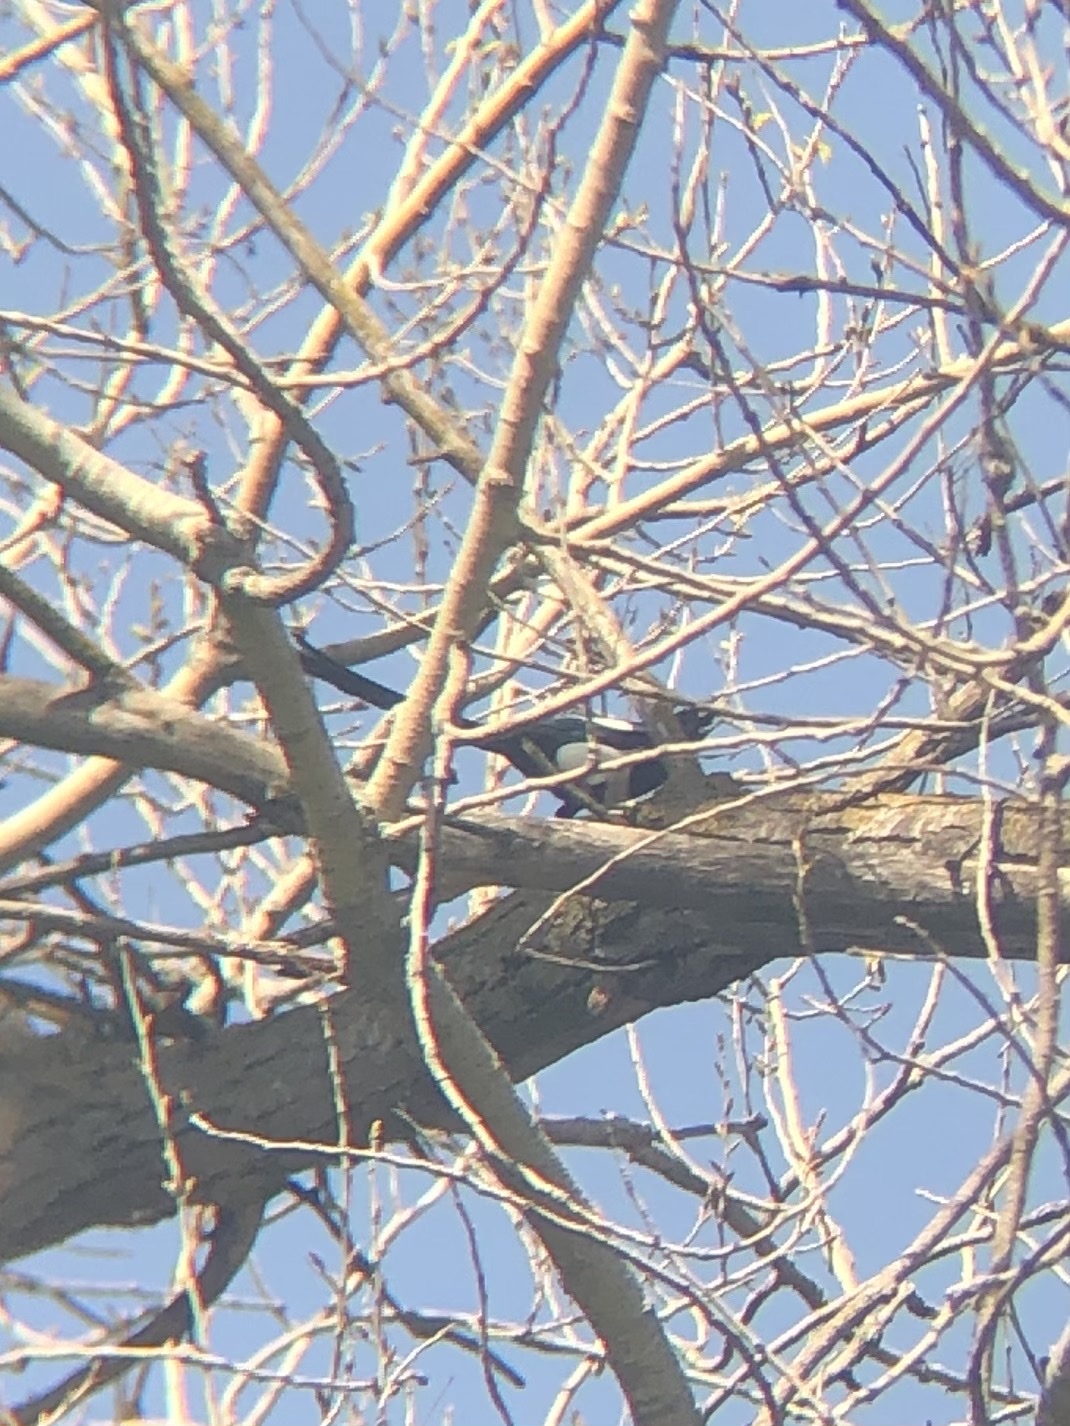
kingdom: Animalia
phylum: Chordata
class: Aves
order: Passeriformes
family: Corvidae
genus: Pica
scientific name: Pica nuttalli
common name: Yellow-billed magpie
